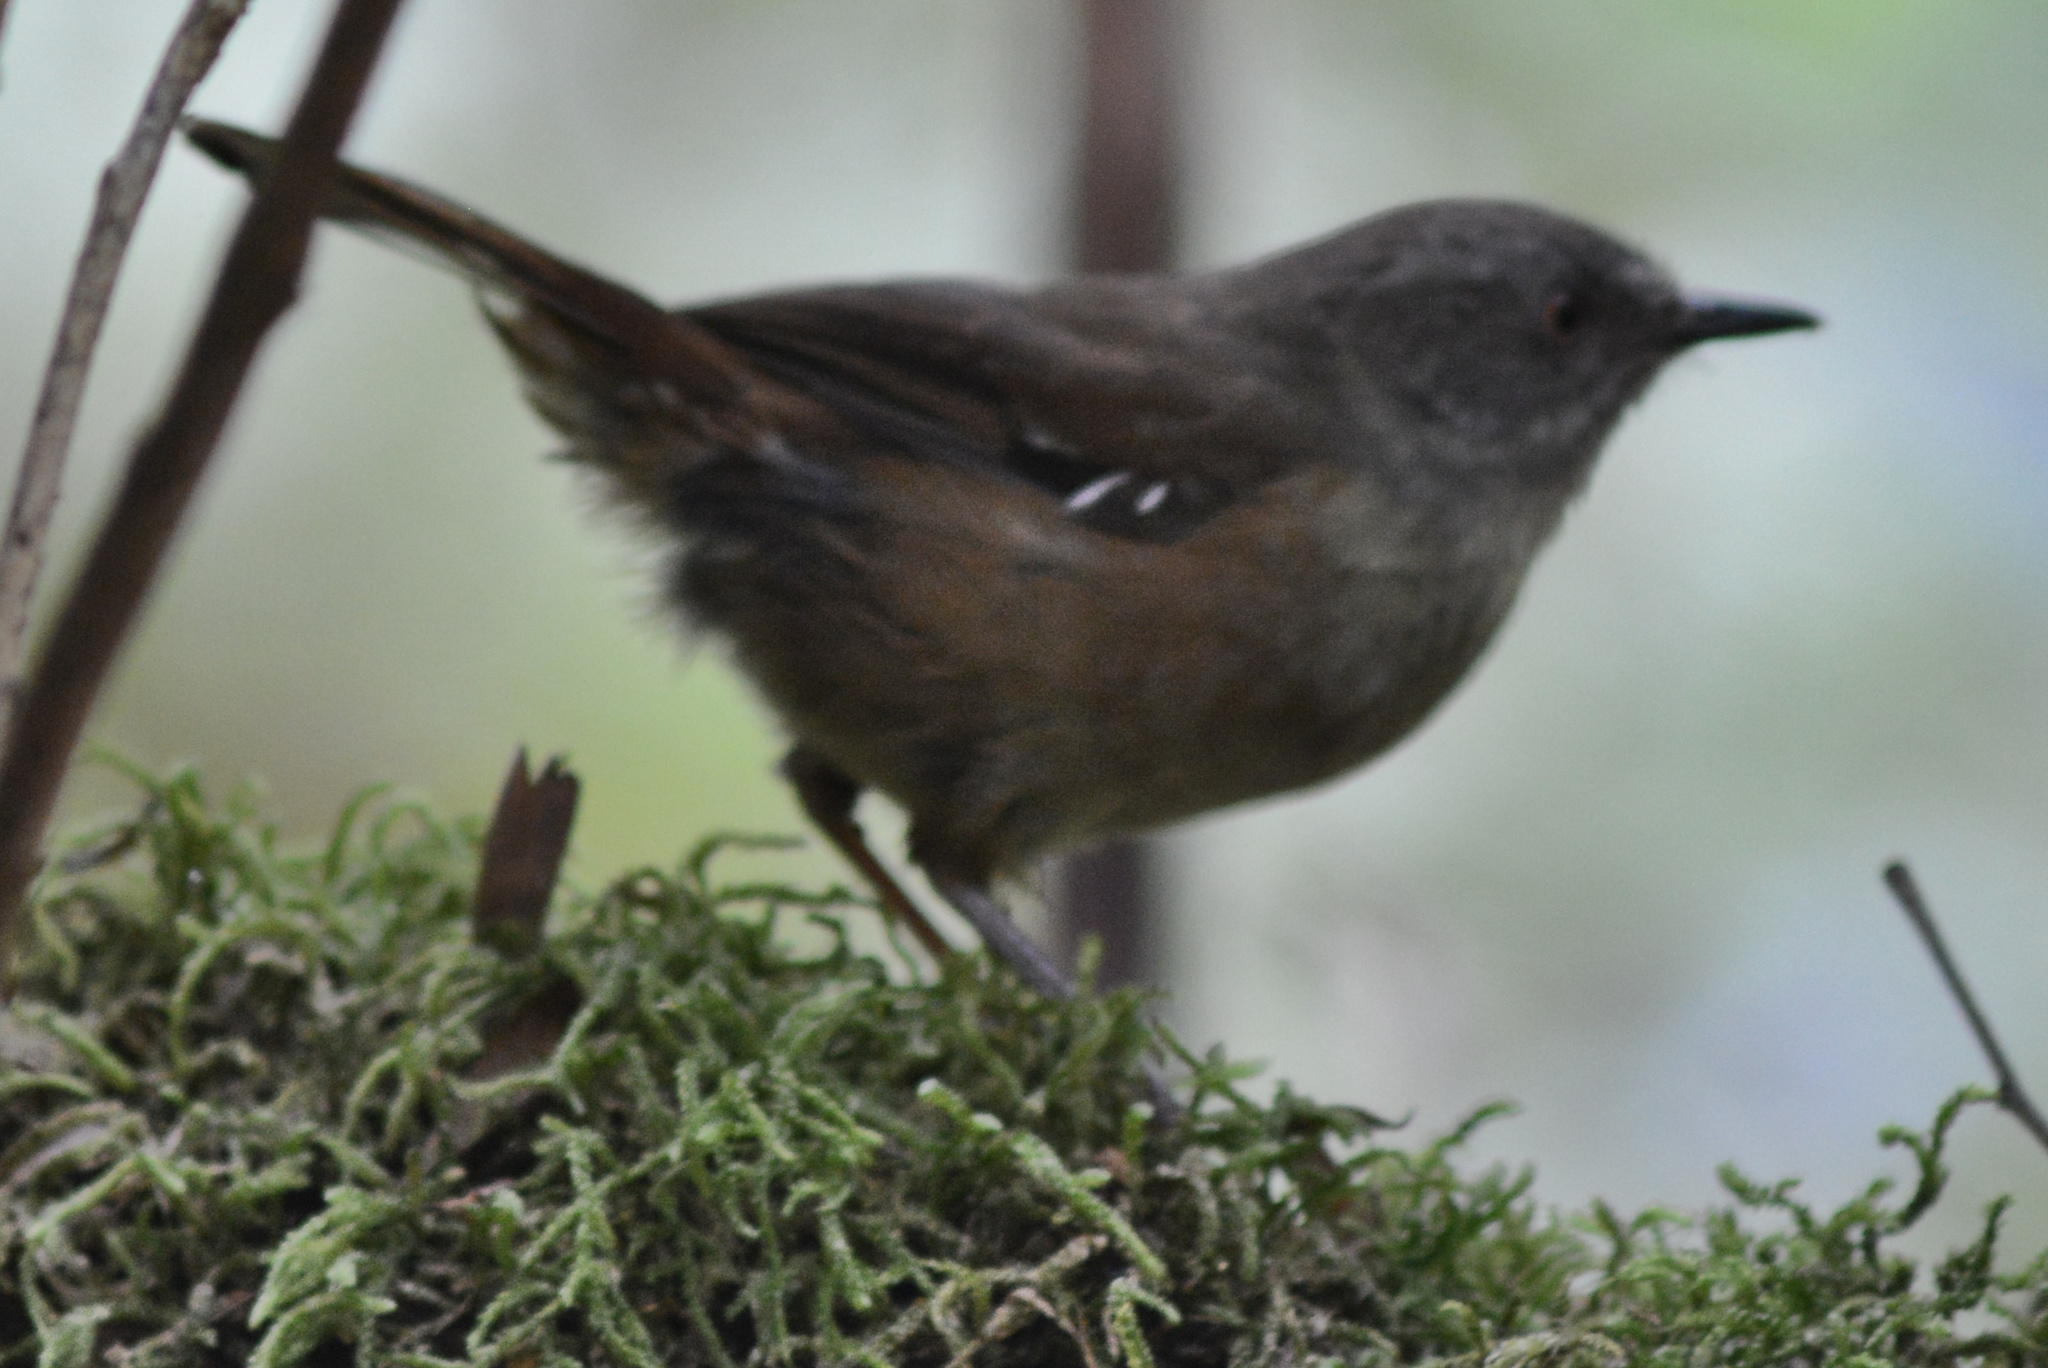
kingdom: Animalia
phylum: Chordata
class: Aves
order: Passeriformes
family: Acanthizidae
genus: Sericornis
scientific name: Sericornis humilis
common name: Tasmanian scrubwren
